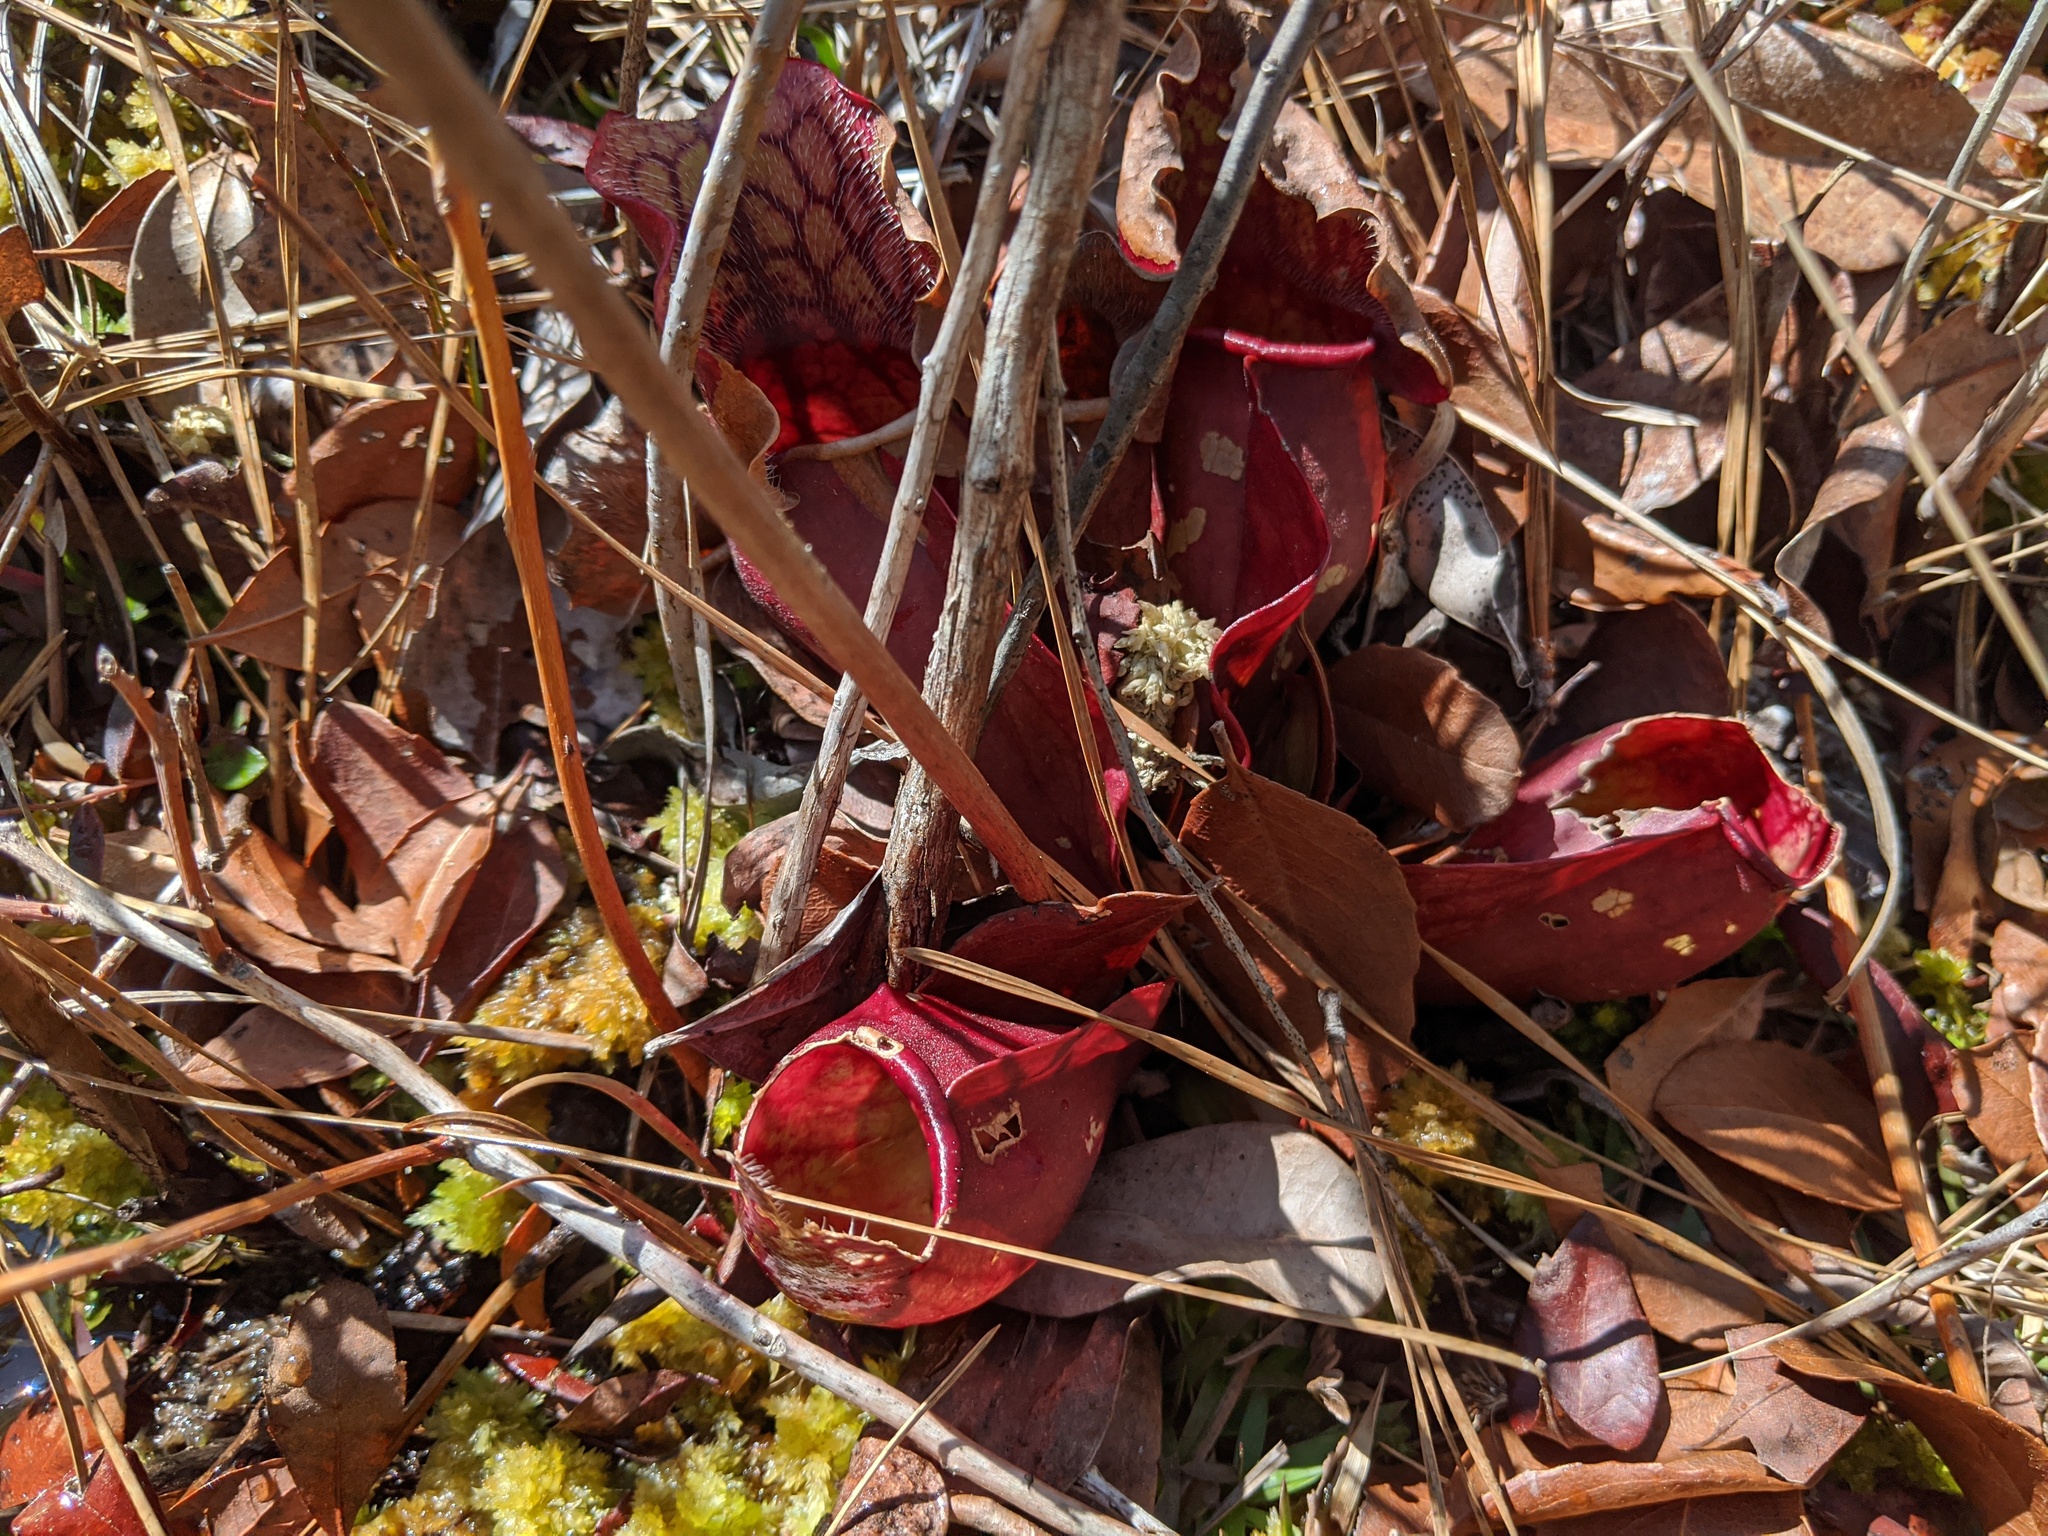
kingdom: Plantae
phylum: Tracheophyta
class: Magnoliopsida
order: Ericales
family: Sarraceniaceae
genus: Sarracenia
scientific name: Sarracenia purpurea
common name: Pitcherplant
